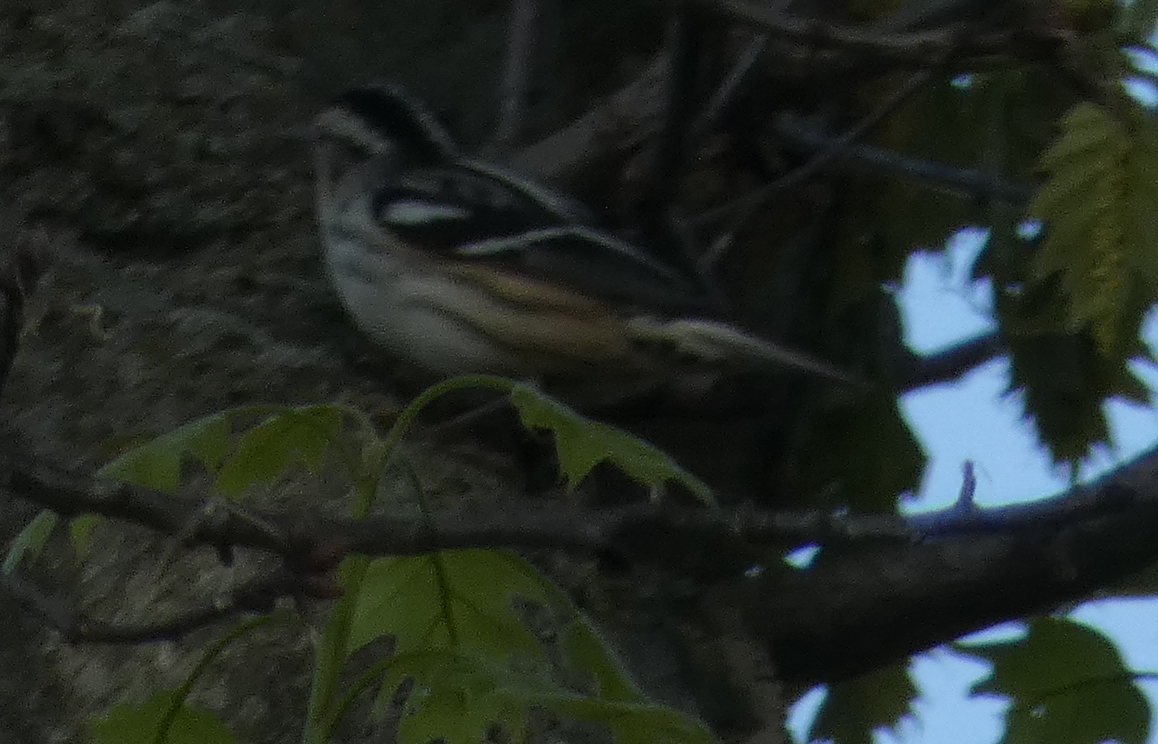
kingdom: Animalia
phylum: Chordata
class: Aves
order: Passeriformes
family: Parulidae
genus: Mniotilta
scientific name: Mniotilta varia
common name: Black-and-white warbler
